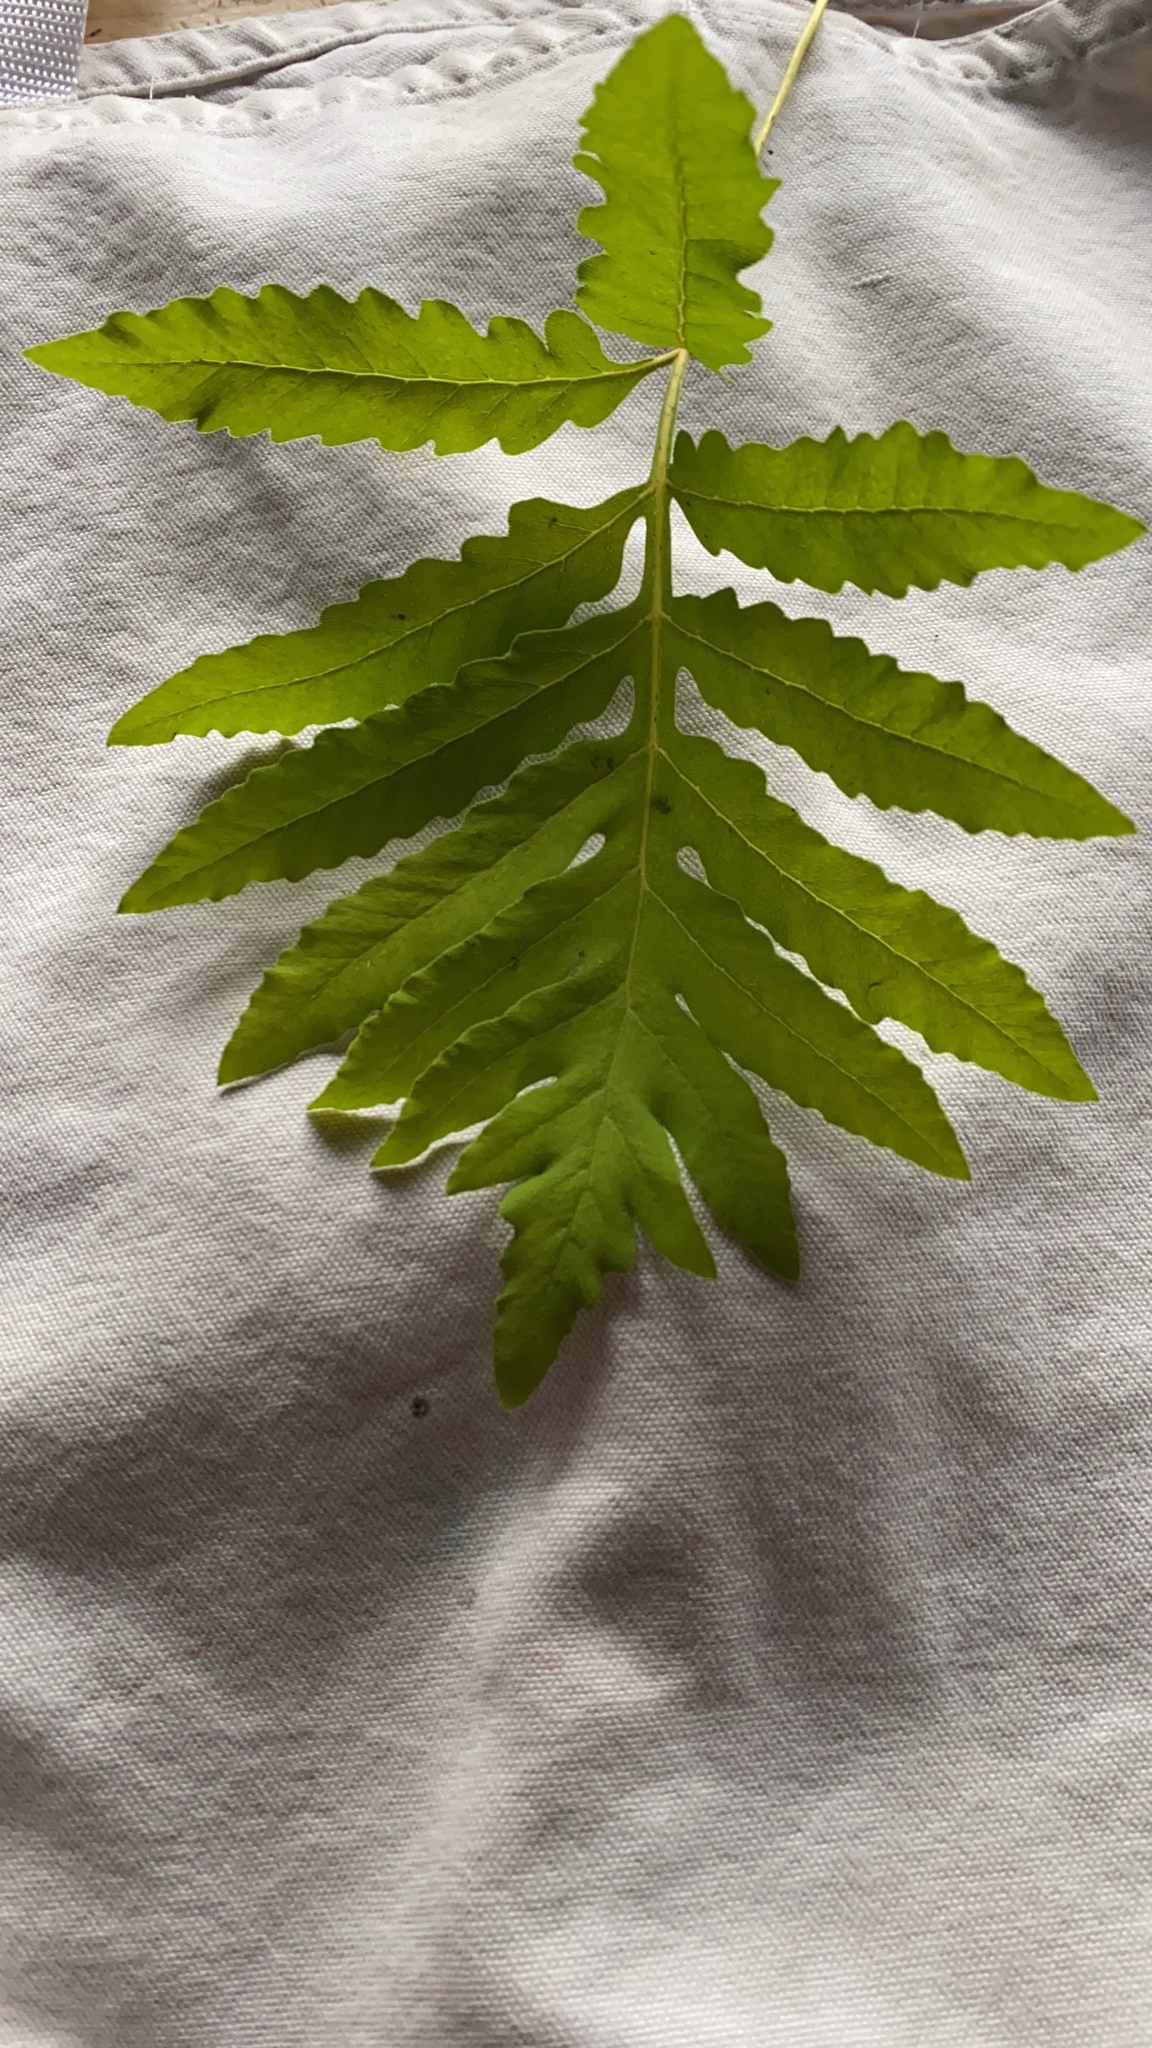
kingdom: Plantae
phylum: Tracheophyta
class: Polypodiopsida
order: Polypodiales
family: Onocleaceae
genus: Onoclea
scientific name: Onoclea sensibilis
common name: Sensitive fern
